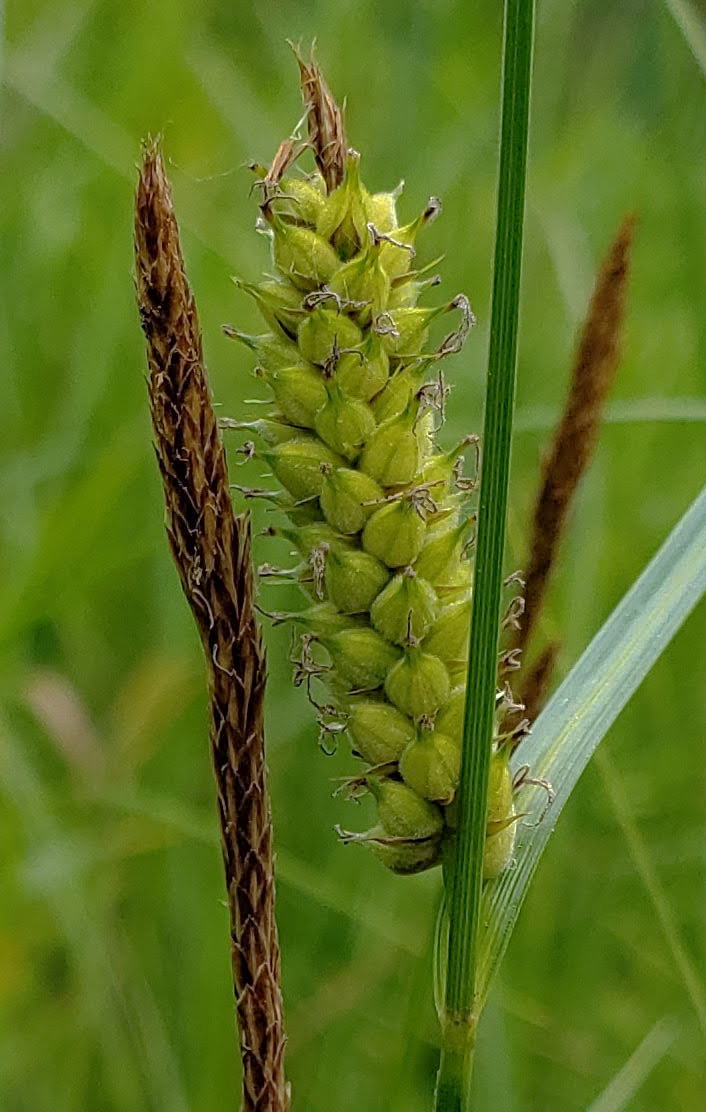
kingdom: Plantae
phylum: Tracheophyta
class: Liliopsida
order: Poales
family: Cyperaceae
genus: Carex
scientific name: Carex pellita
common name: Woolly sedge
